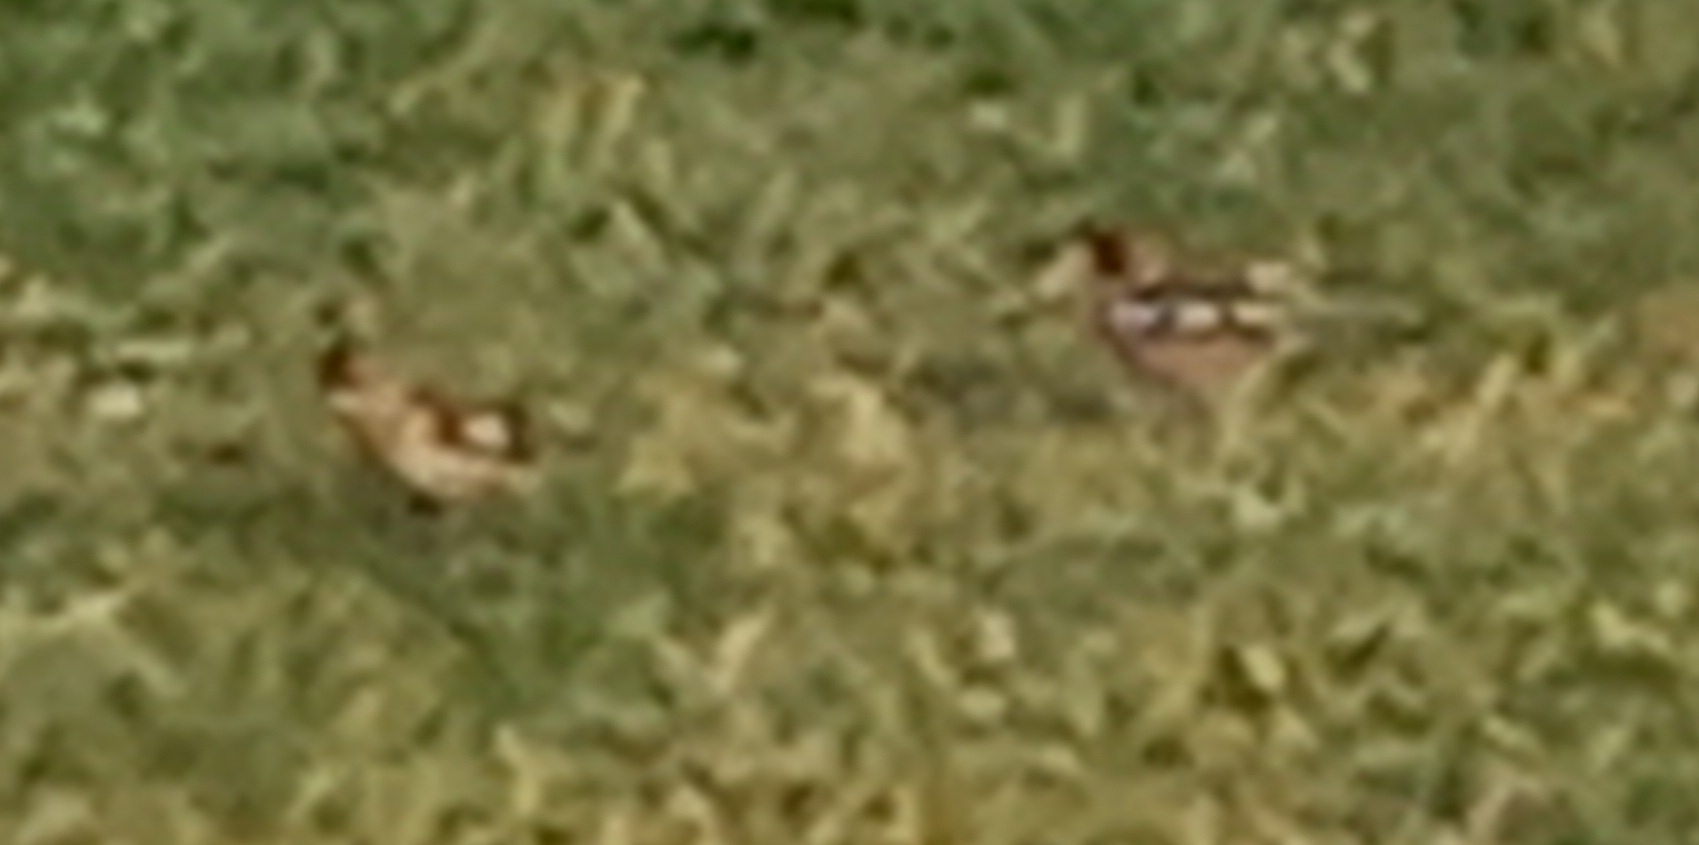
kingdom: Animalia
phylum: Chordata
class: Aves
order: Passeriformes
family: Fringillidae
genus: Fringilla
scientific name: Fringilla montifringilla
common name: Brambling
